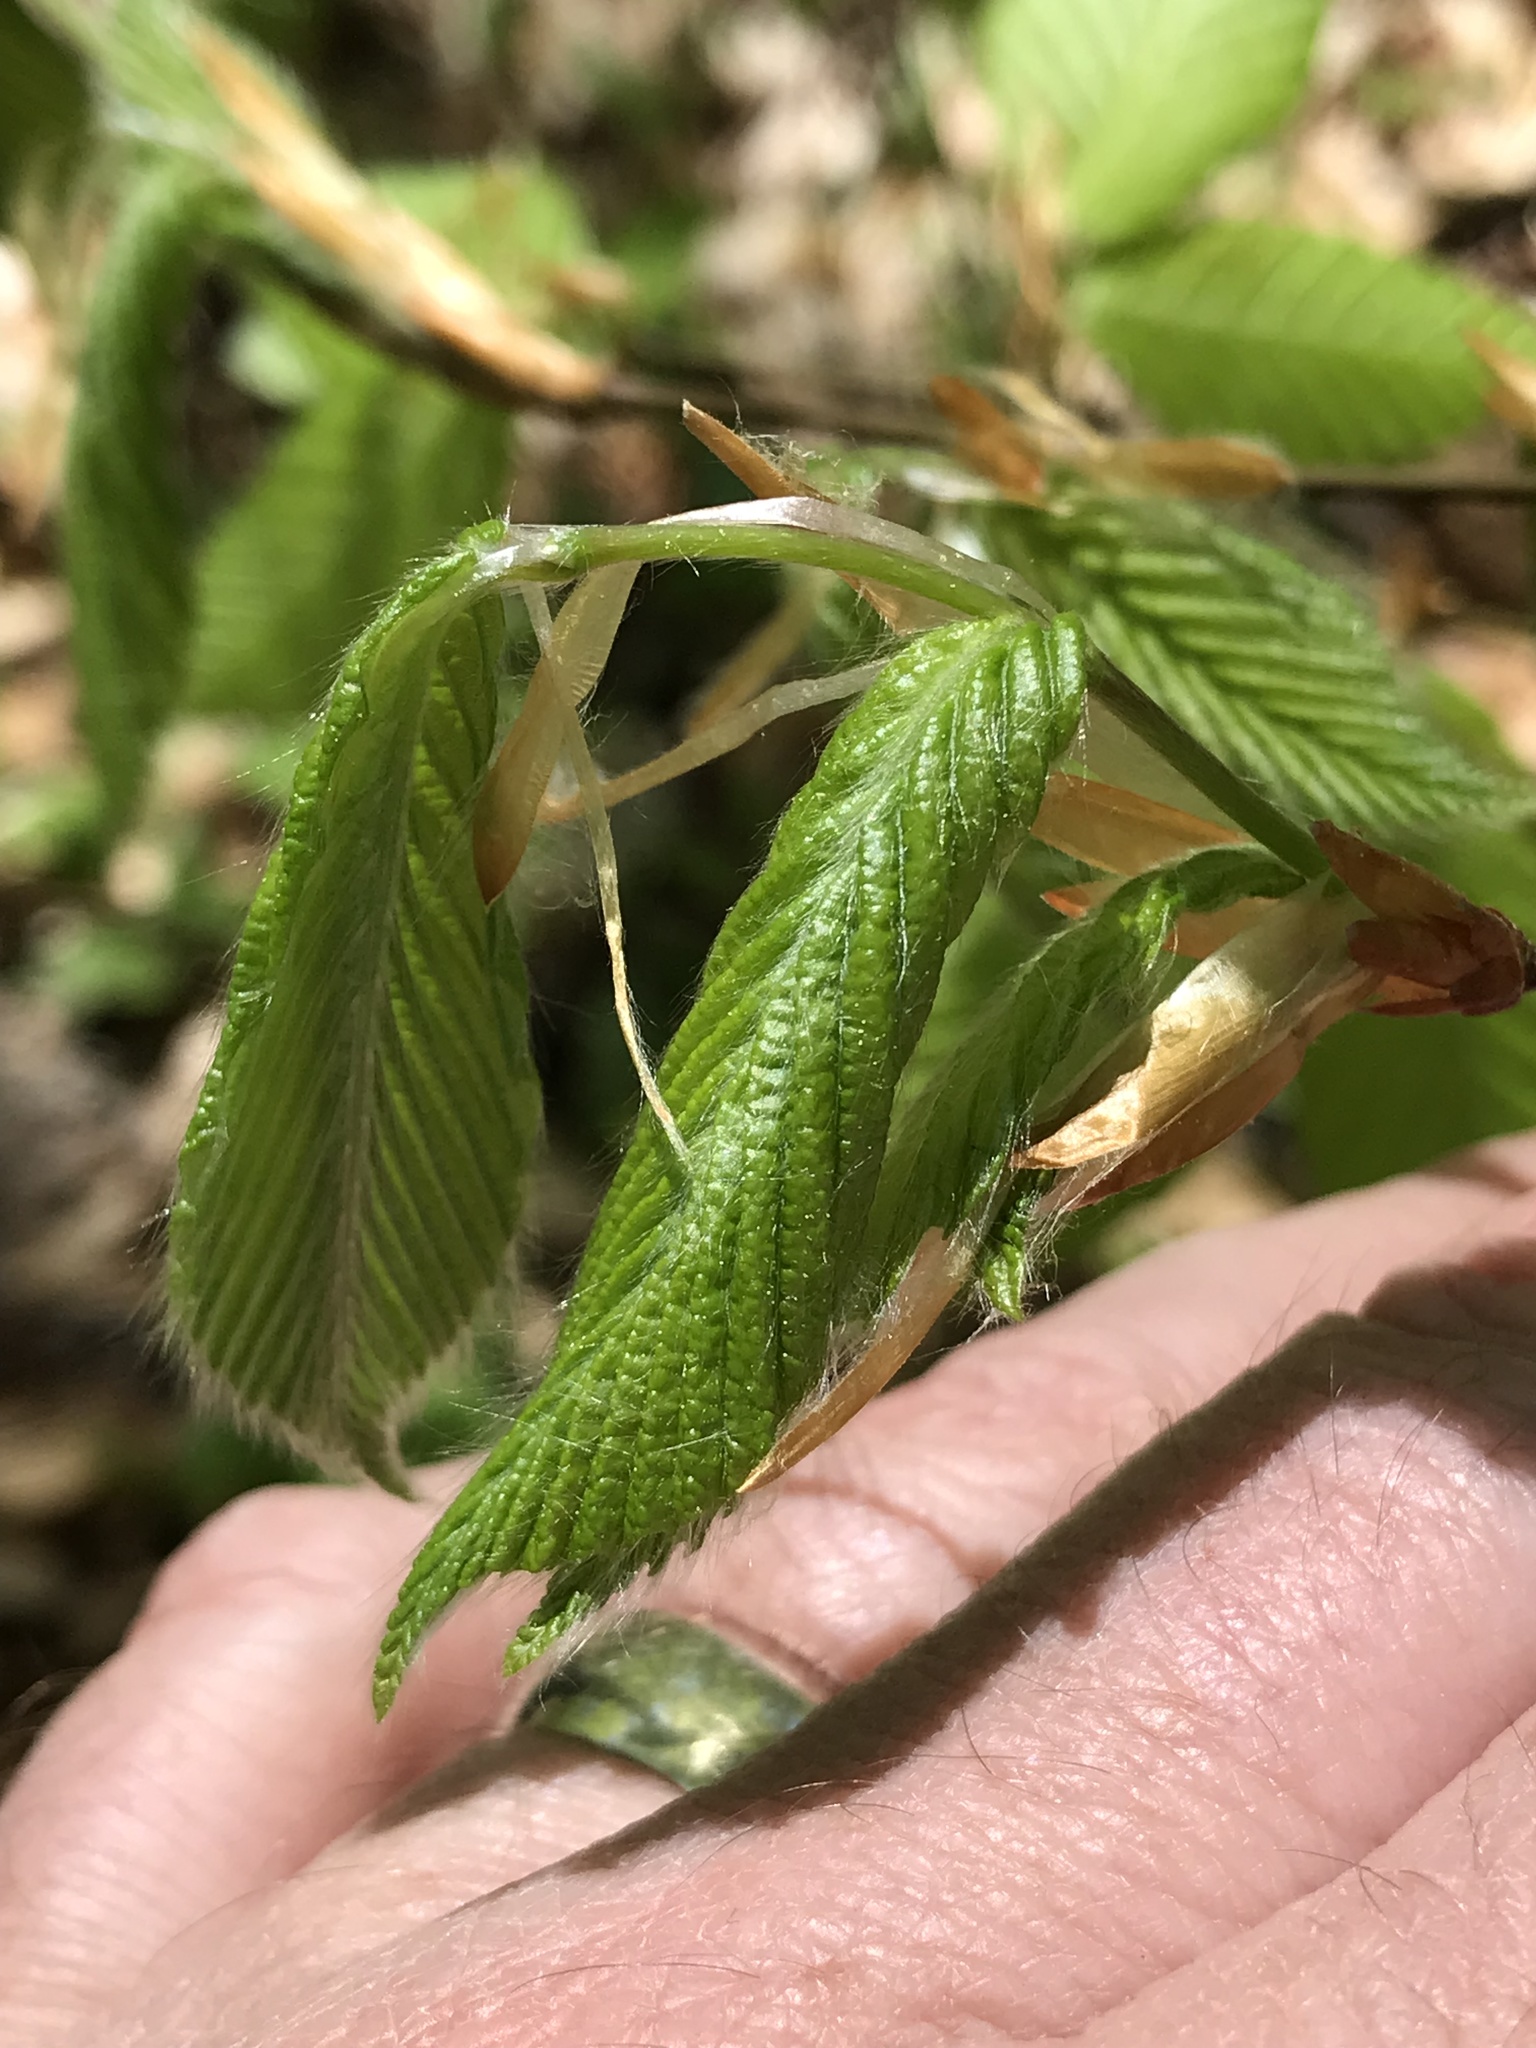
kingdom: Plantae
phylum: Tracheophyta
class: Magnoliopsida
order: Fagales
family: Fagaceae
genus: Fagus
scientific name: Fagus grandifolia
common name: American beech
